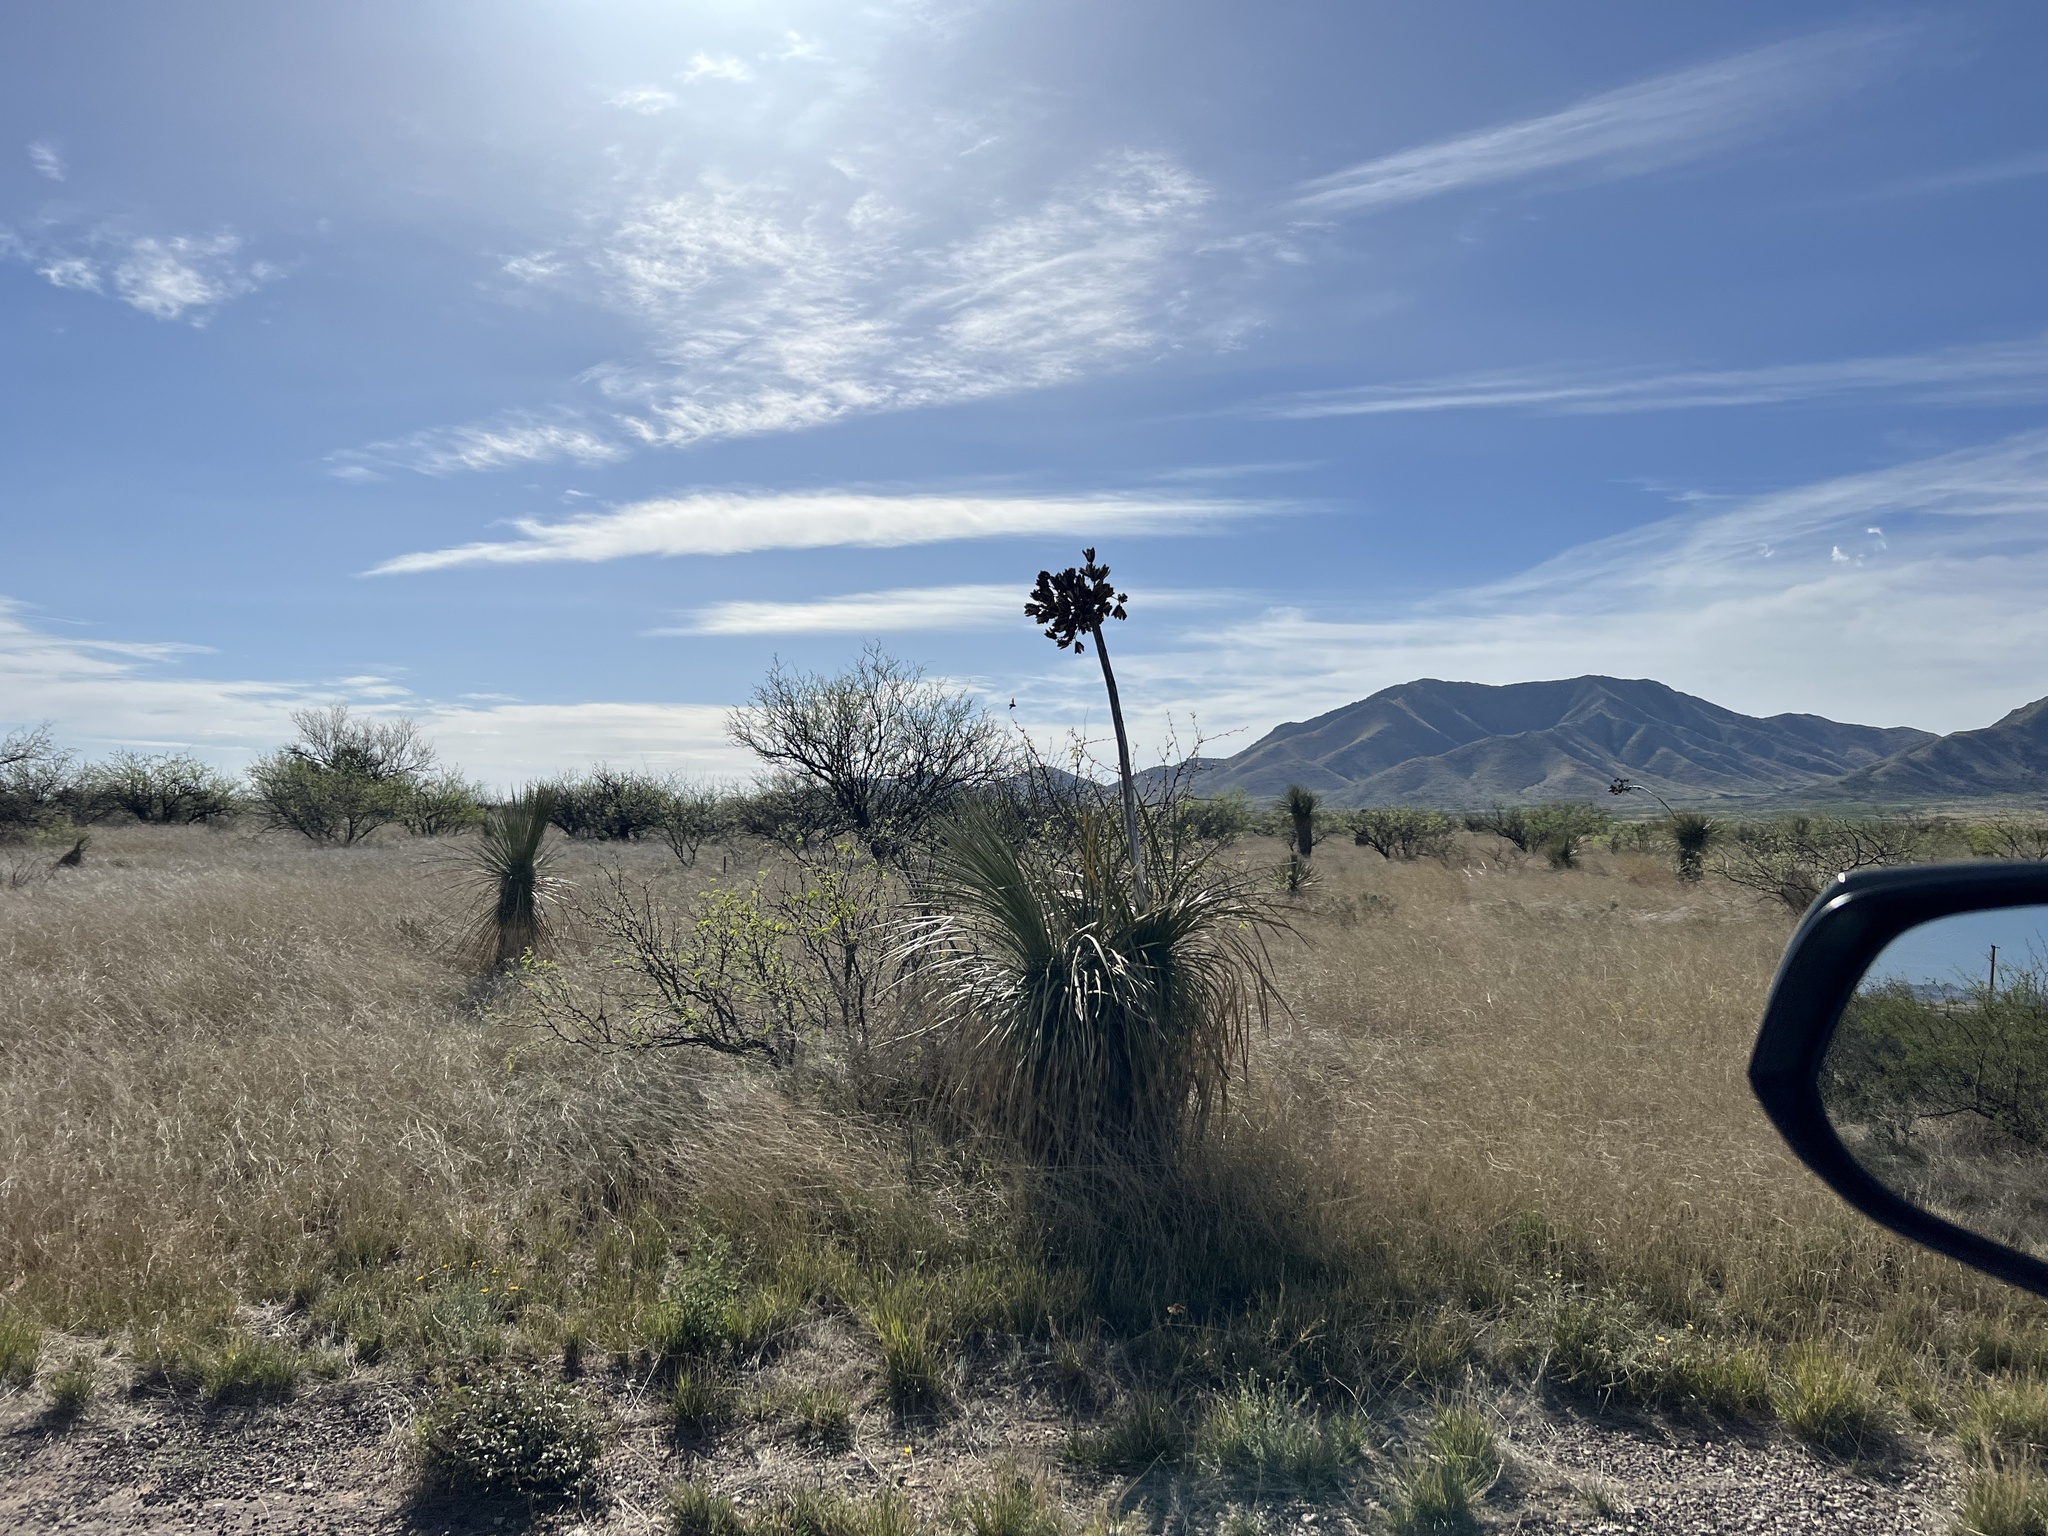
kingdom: Plantae
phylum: Tracheophyta
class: Liliopsida
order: Asparagales
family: Asparagaceae
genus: Yucca
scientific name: Yucca elata
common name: Palmella
